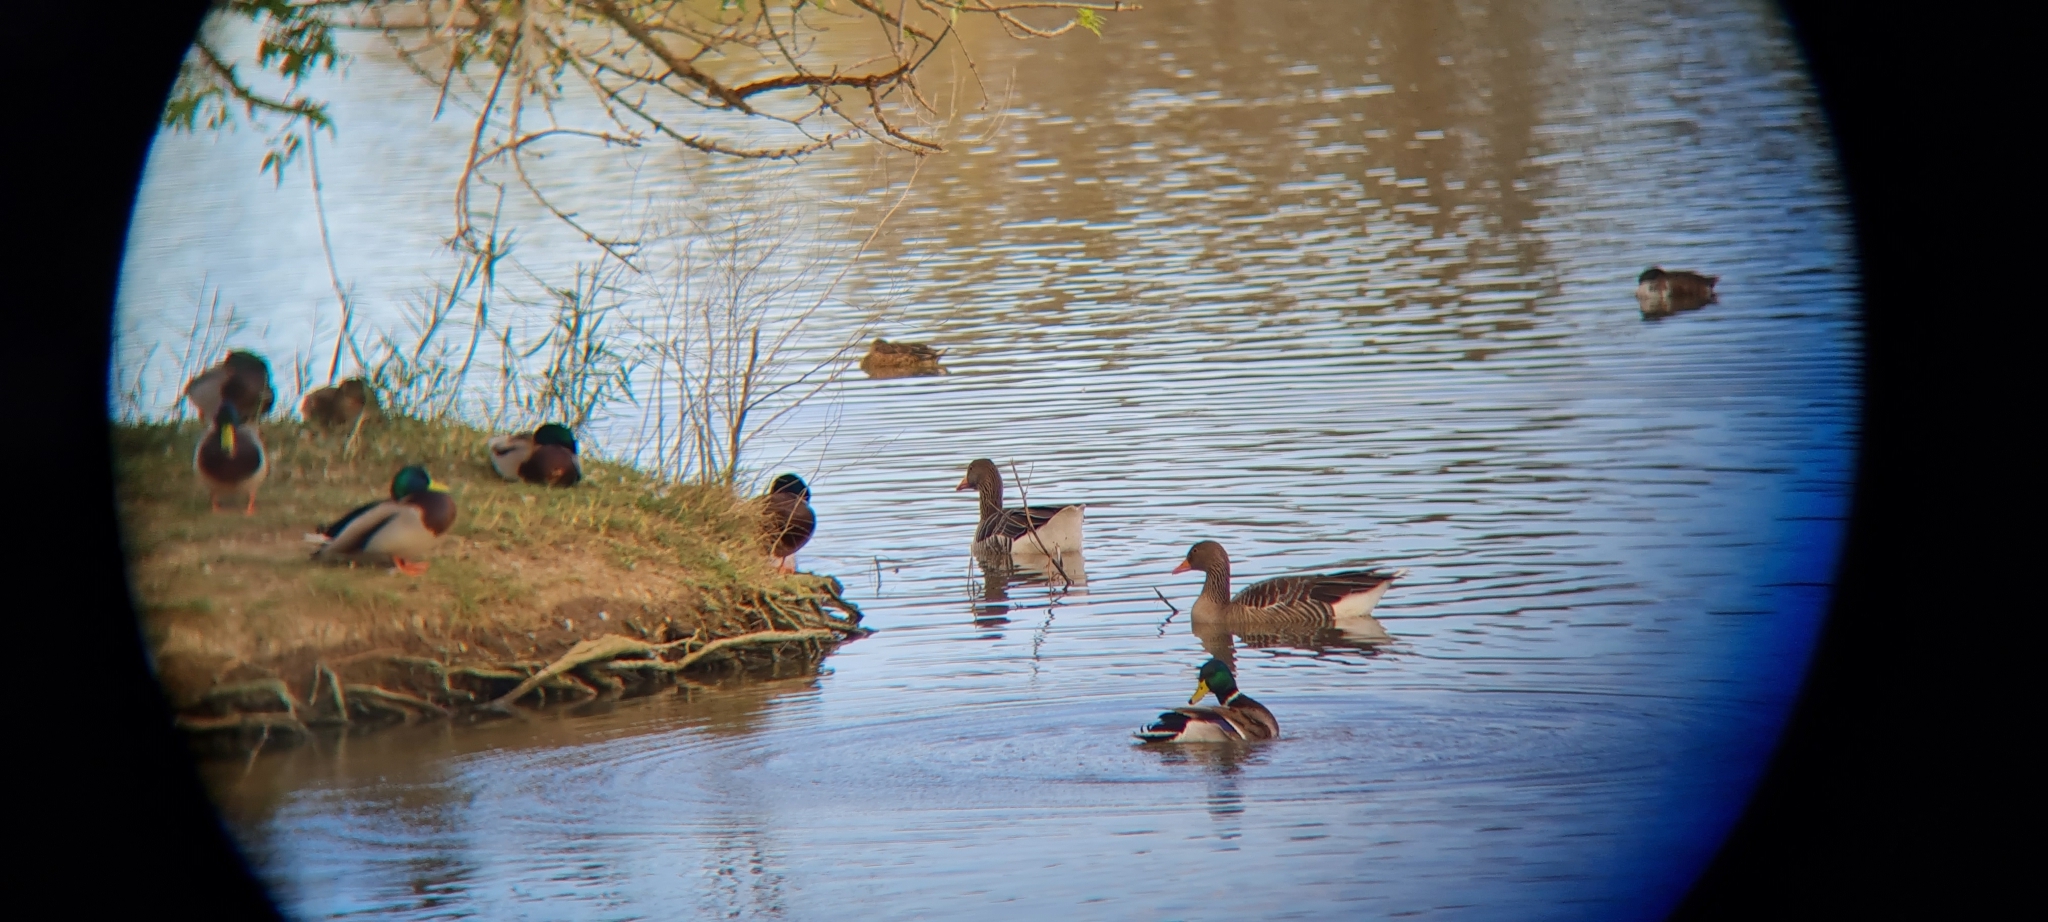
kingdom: Animalia
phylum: Chordata
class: Aves
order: Anseriformes
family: Anatidae
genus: Anser
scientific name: Anser anser
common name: Greylag goose
